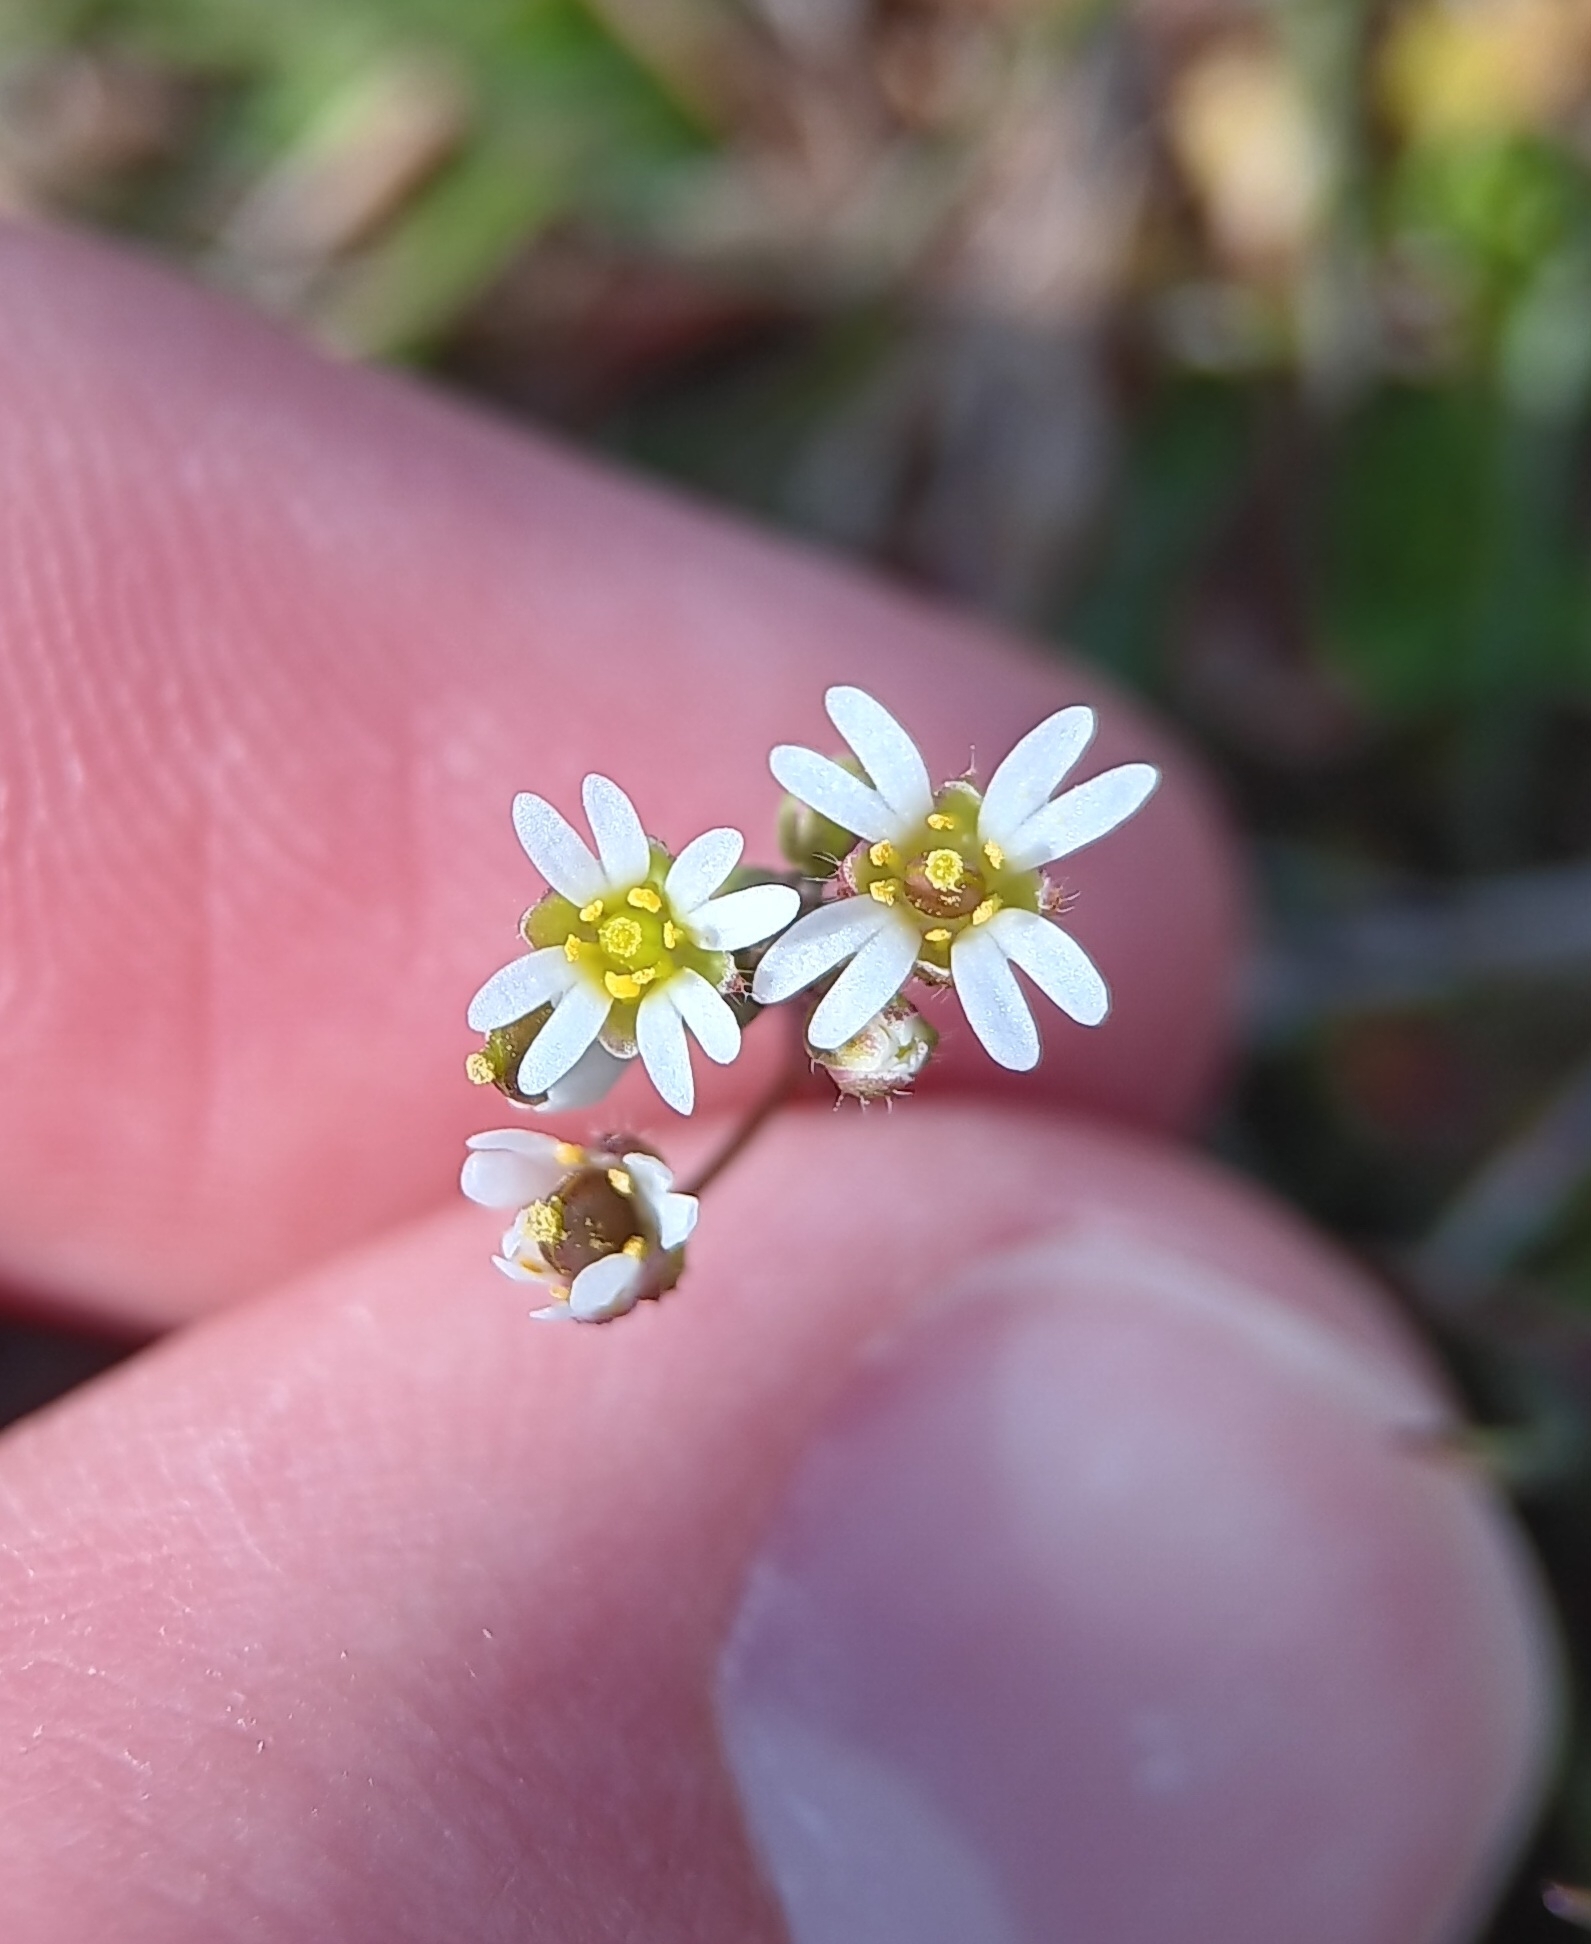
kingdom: Plantae
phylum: Tracheophyta
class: Magnoliopsida
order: Brassicales
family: Brassicaceae
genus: Draba
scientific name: Draba verna
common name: Spring draba
